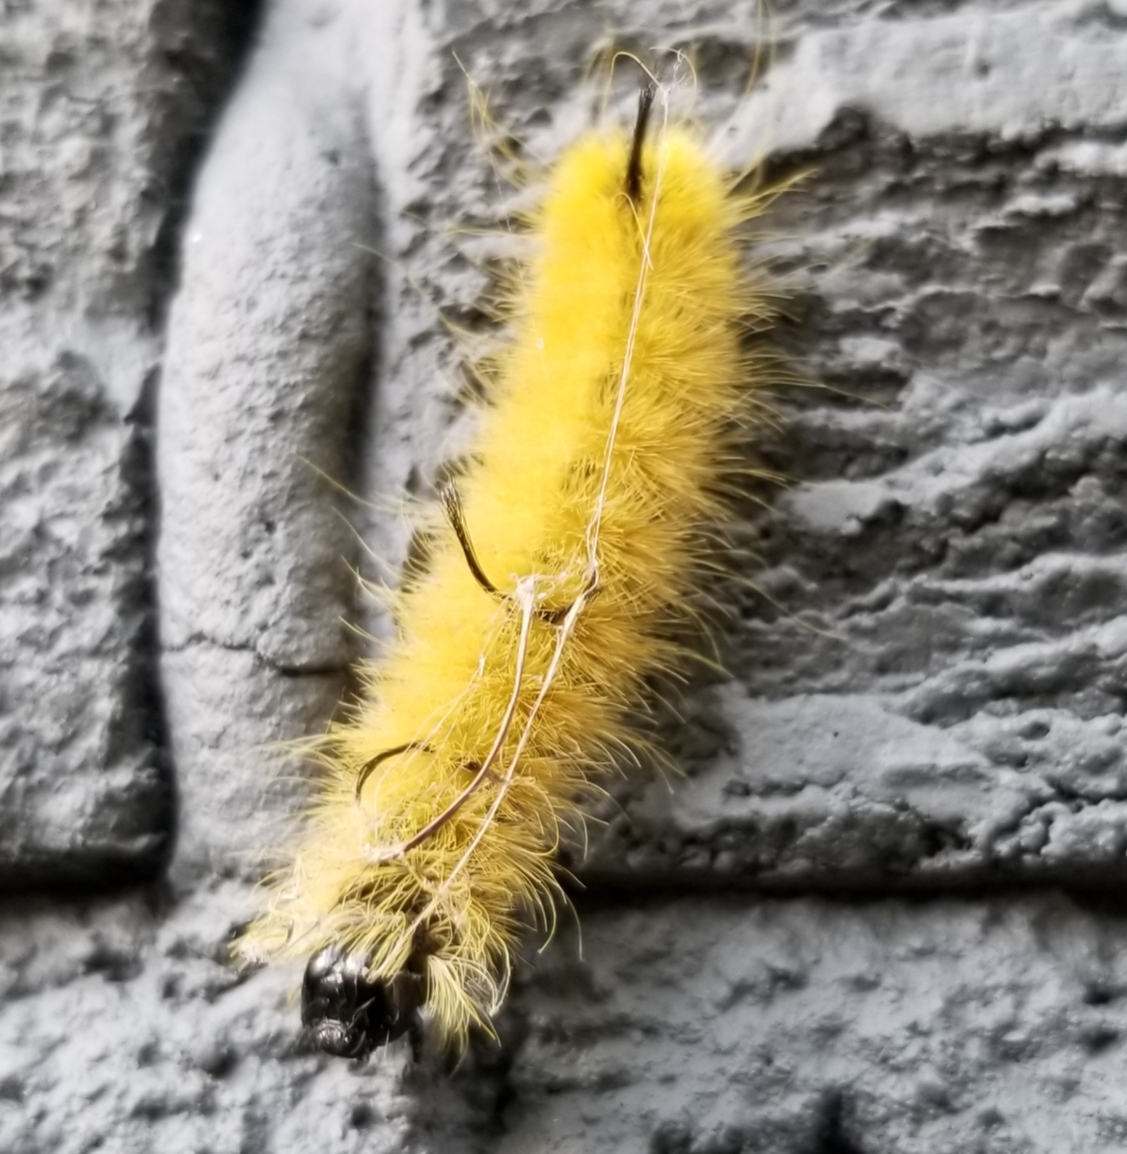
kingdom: Animalia
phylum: Arthropoda
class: Insecta
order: Lepidoptera
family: Noctuidae
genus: Acronicta
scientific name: Acronicta americana
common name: American dagger
